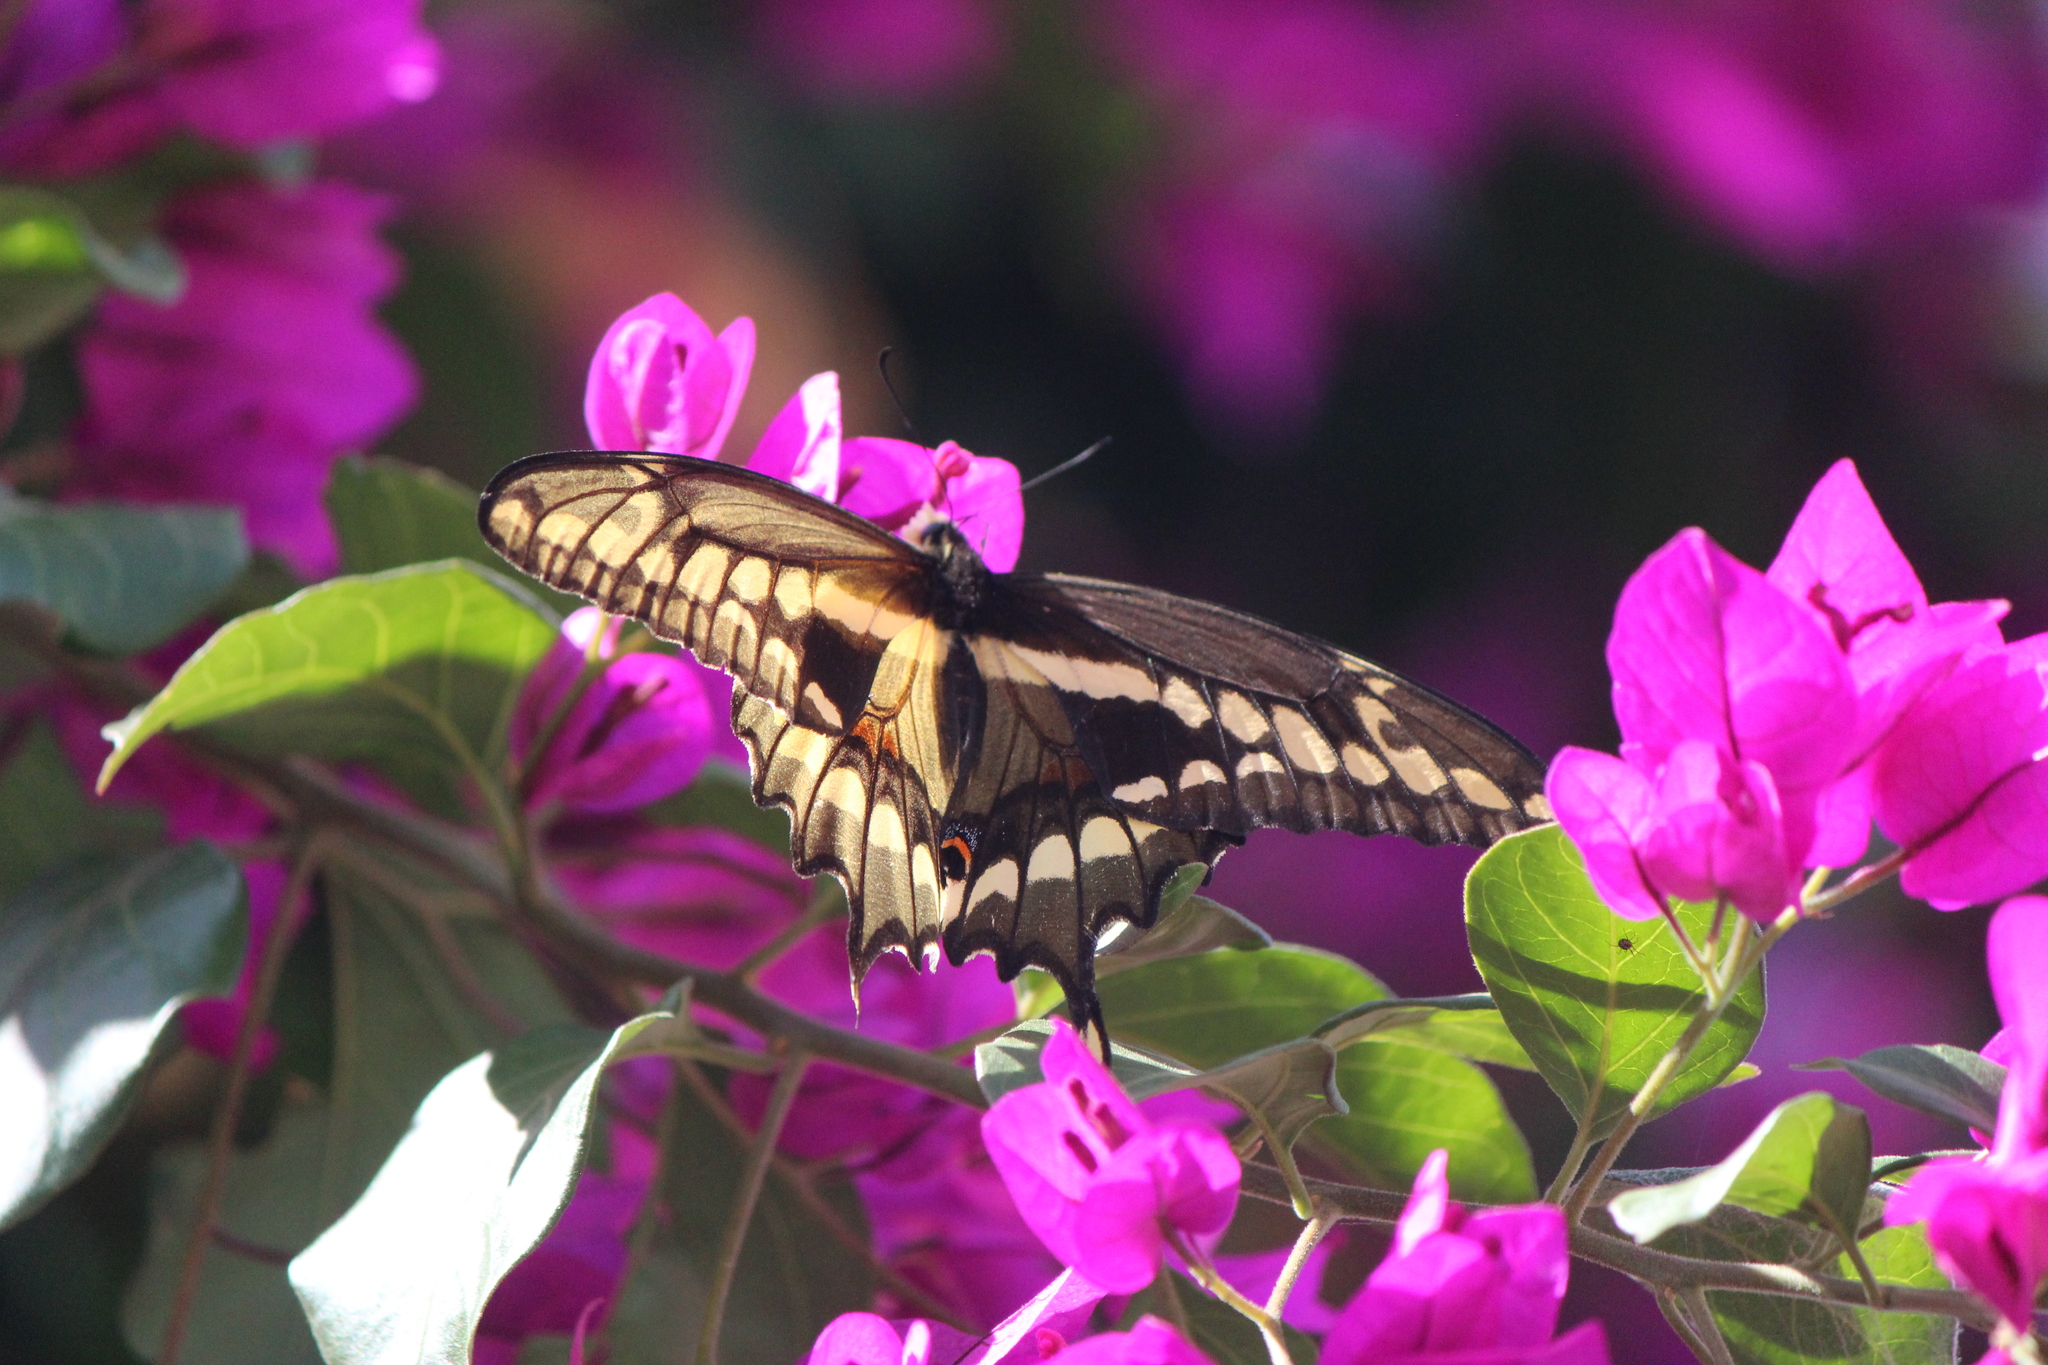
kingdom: Animalia
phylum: Arthropoda
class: Insecta
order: Lepidoptera
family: Papilionidae
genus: Papilio
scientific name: Papilio rumiko
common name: Western giant swallowtail
